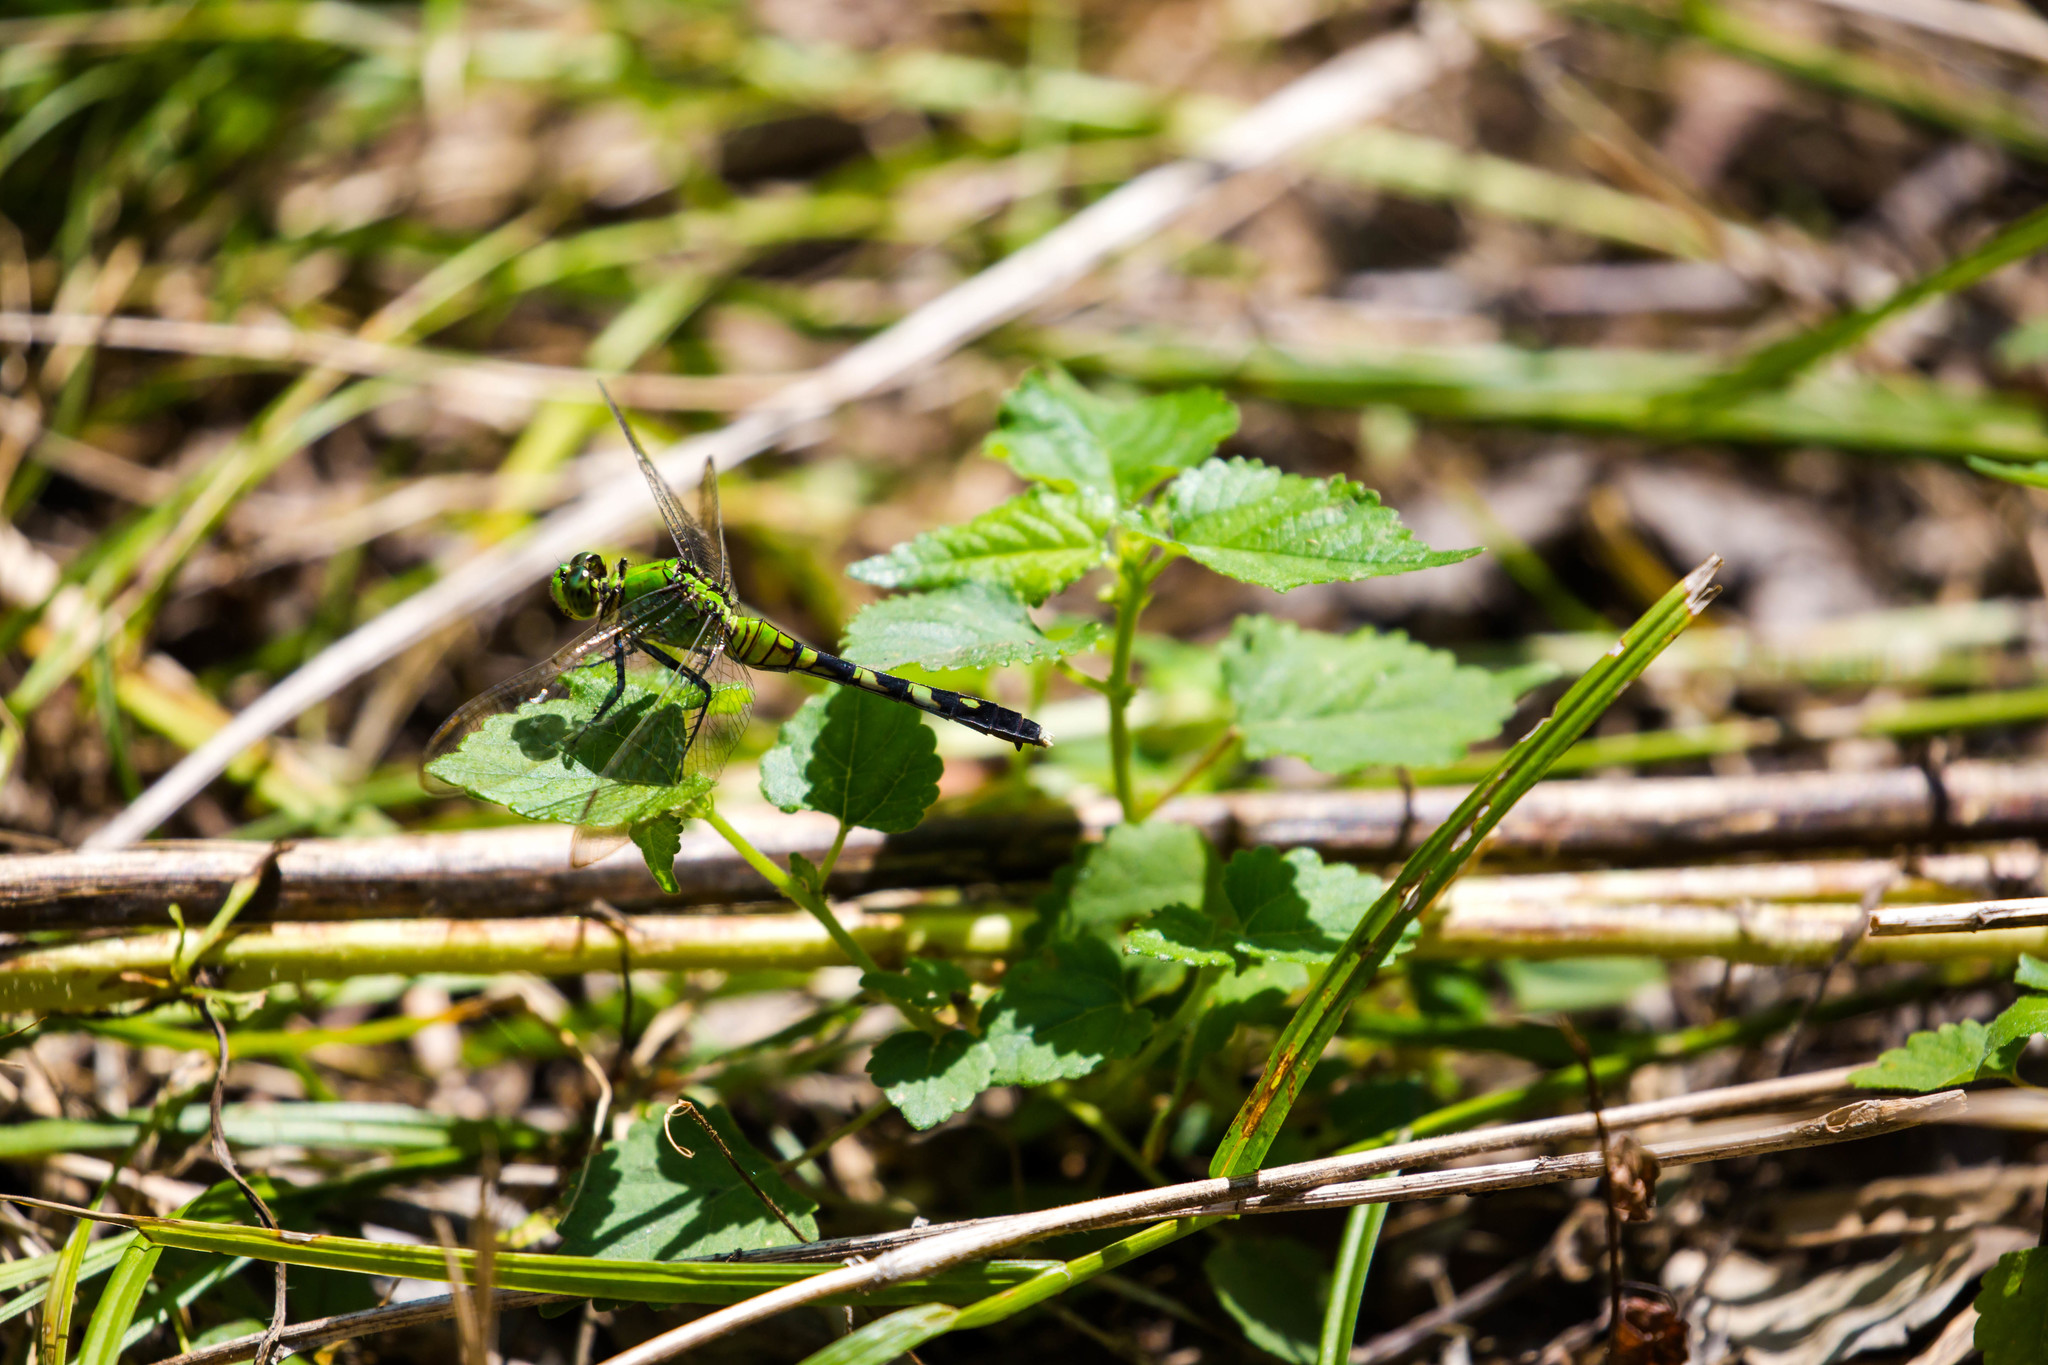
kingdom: Animalia
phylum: Arthropoda
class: Insecta
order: Odonata
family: Libellulidae
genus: Erythemis
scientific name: Erythemis simplicicollis
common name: Eastern pondhawk
